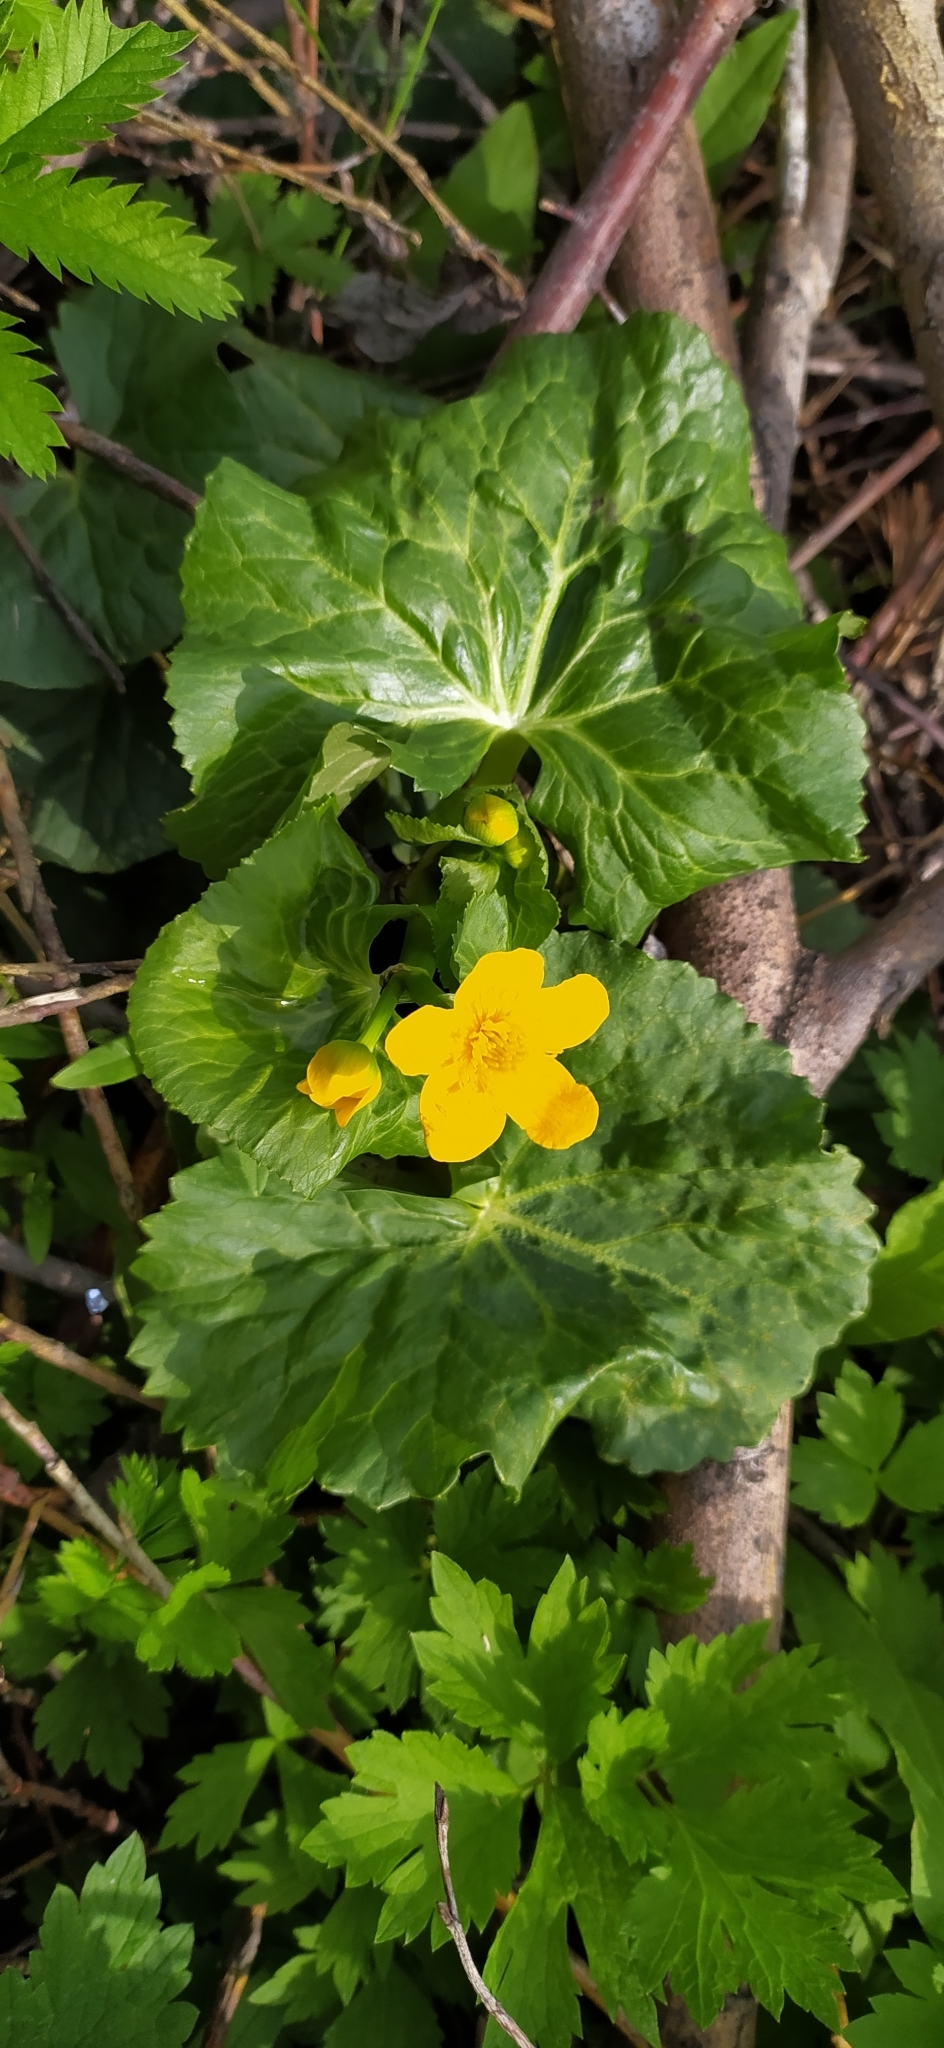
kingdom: Plantae
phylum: Tracheophyta
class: Magnoliopsida
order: Ranunculales
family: Ranunculaceae
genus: Caltha
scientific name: Caltha palustris
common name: Marsh marigold
